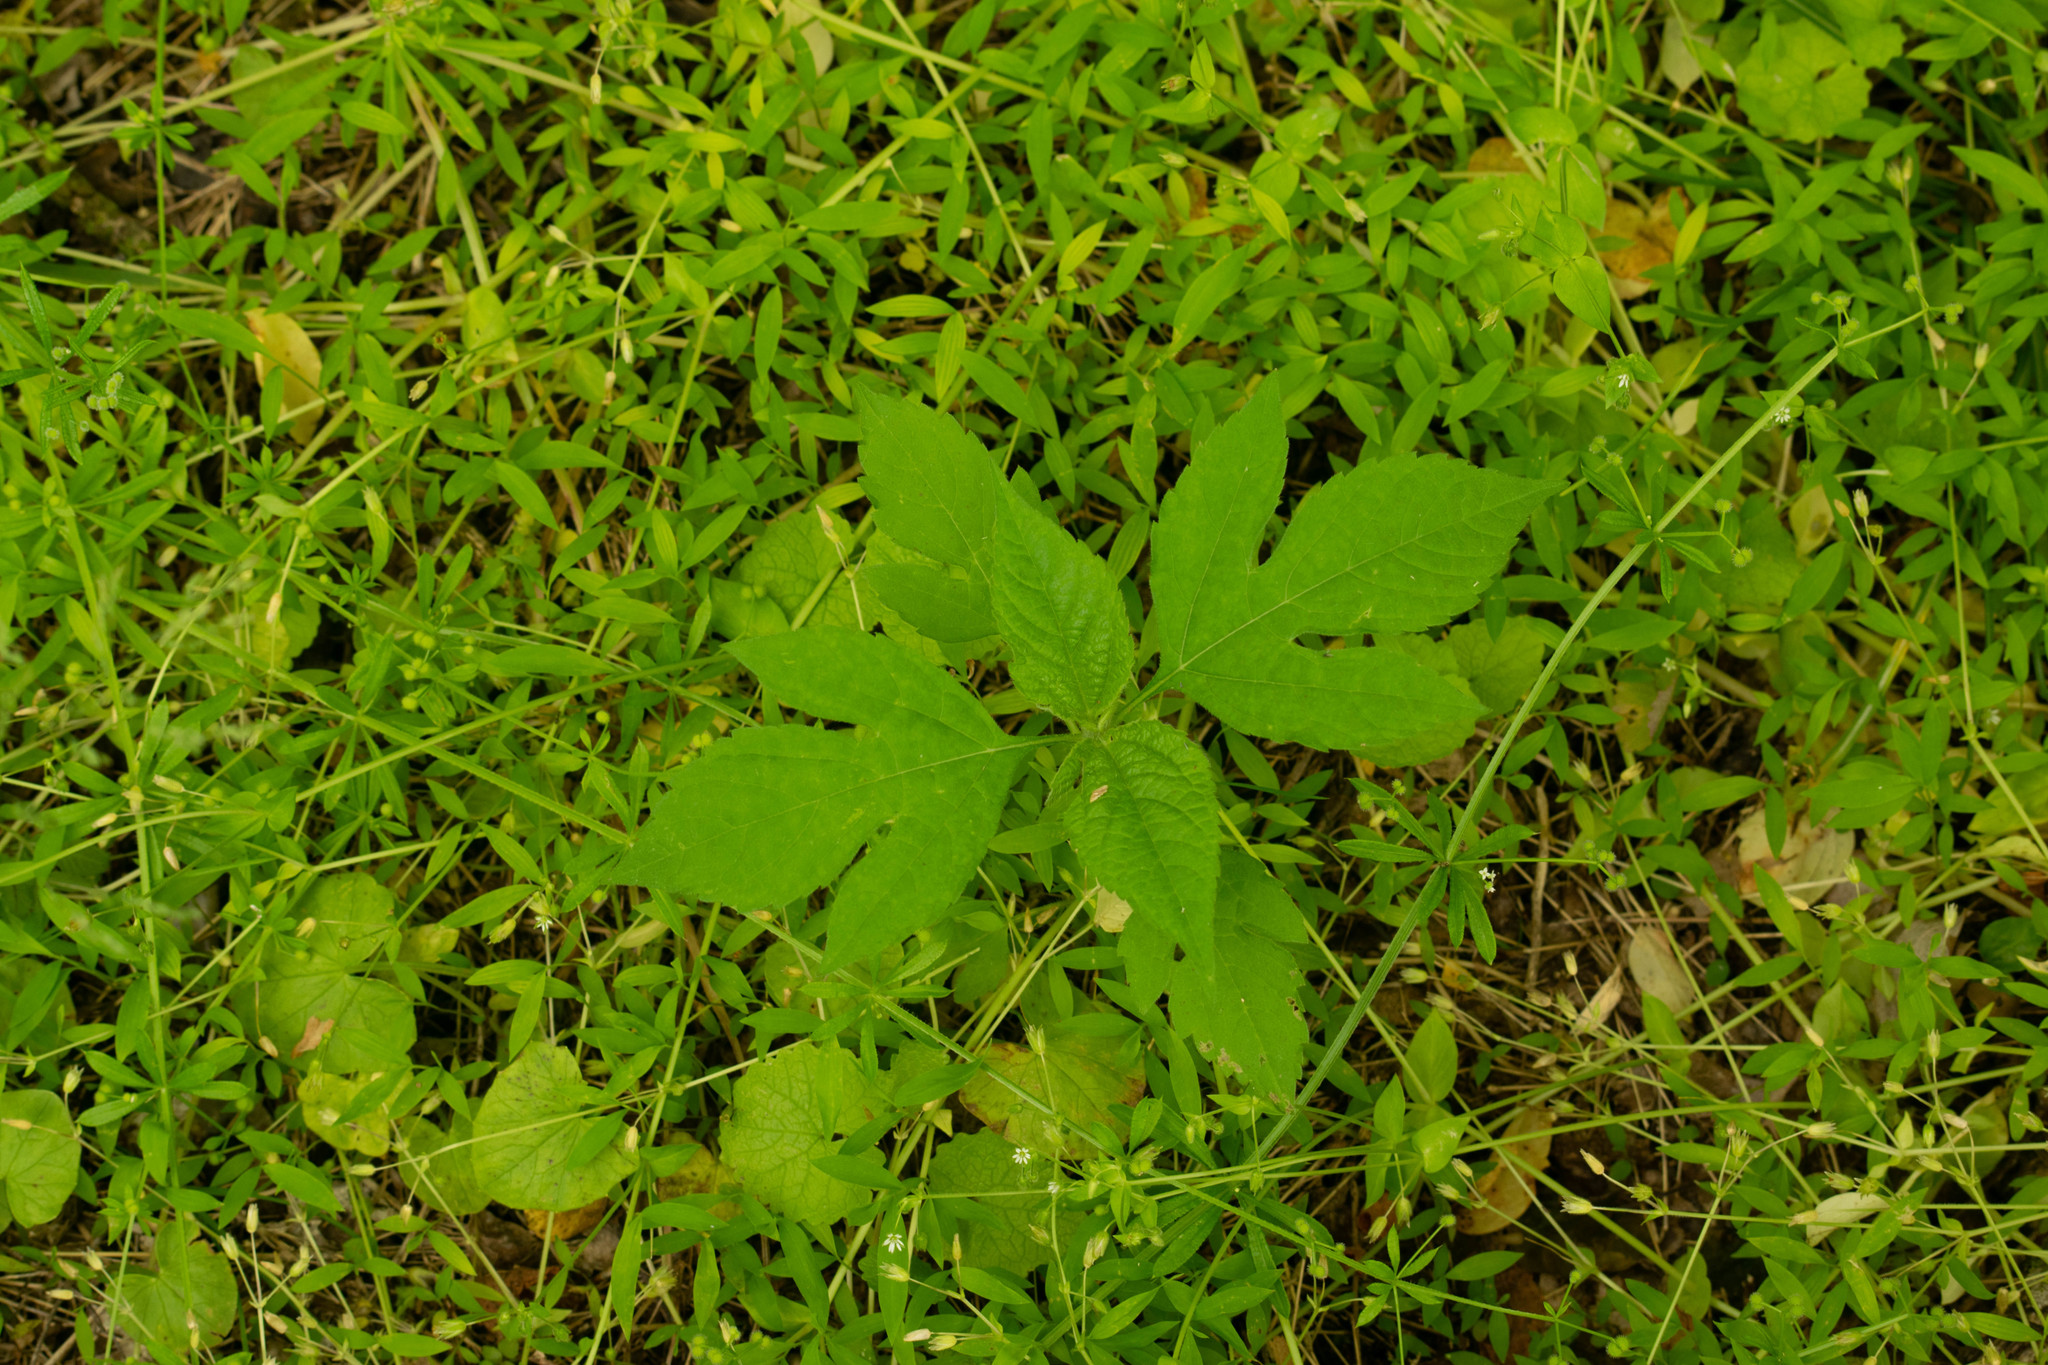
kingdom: Plantae
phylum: Tracheophyta
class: Magnoliopsida
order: Asterales
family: Asteraceae
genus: Ambrosia
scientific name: Ambrosia trifida
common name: Giant ragweed
